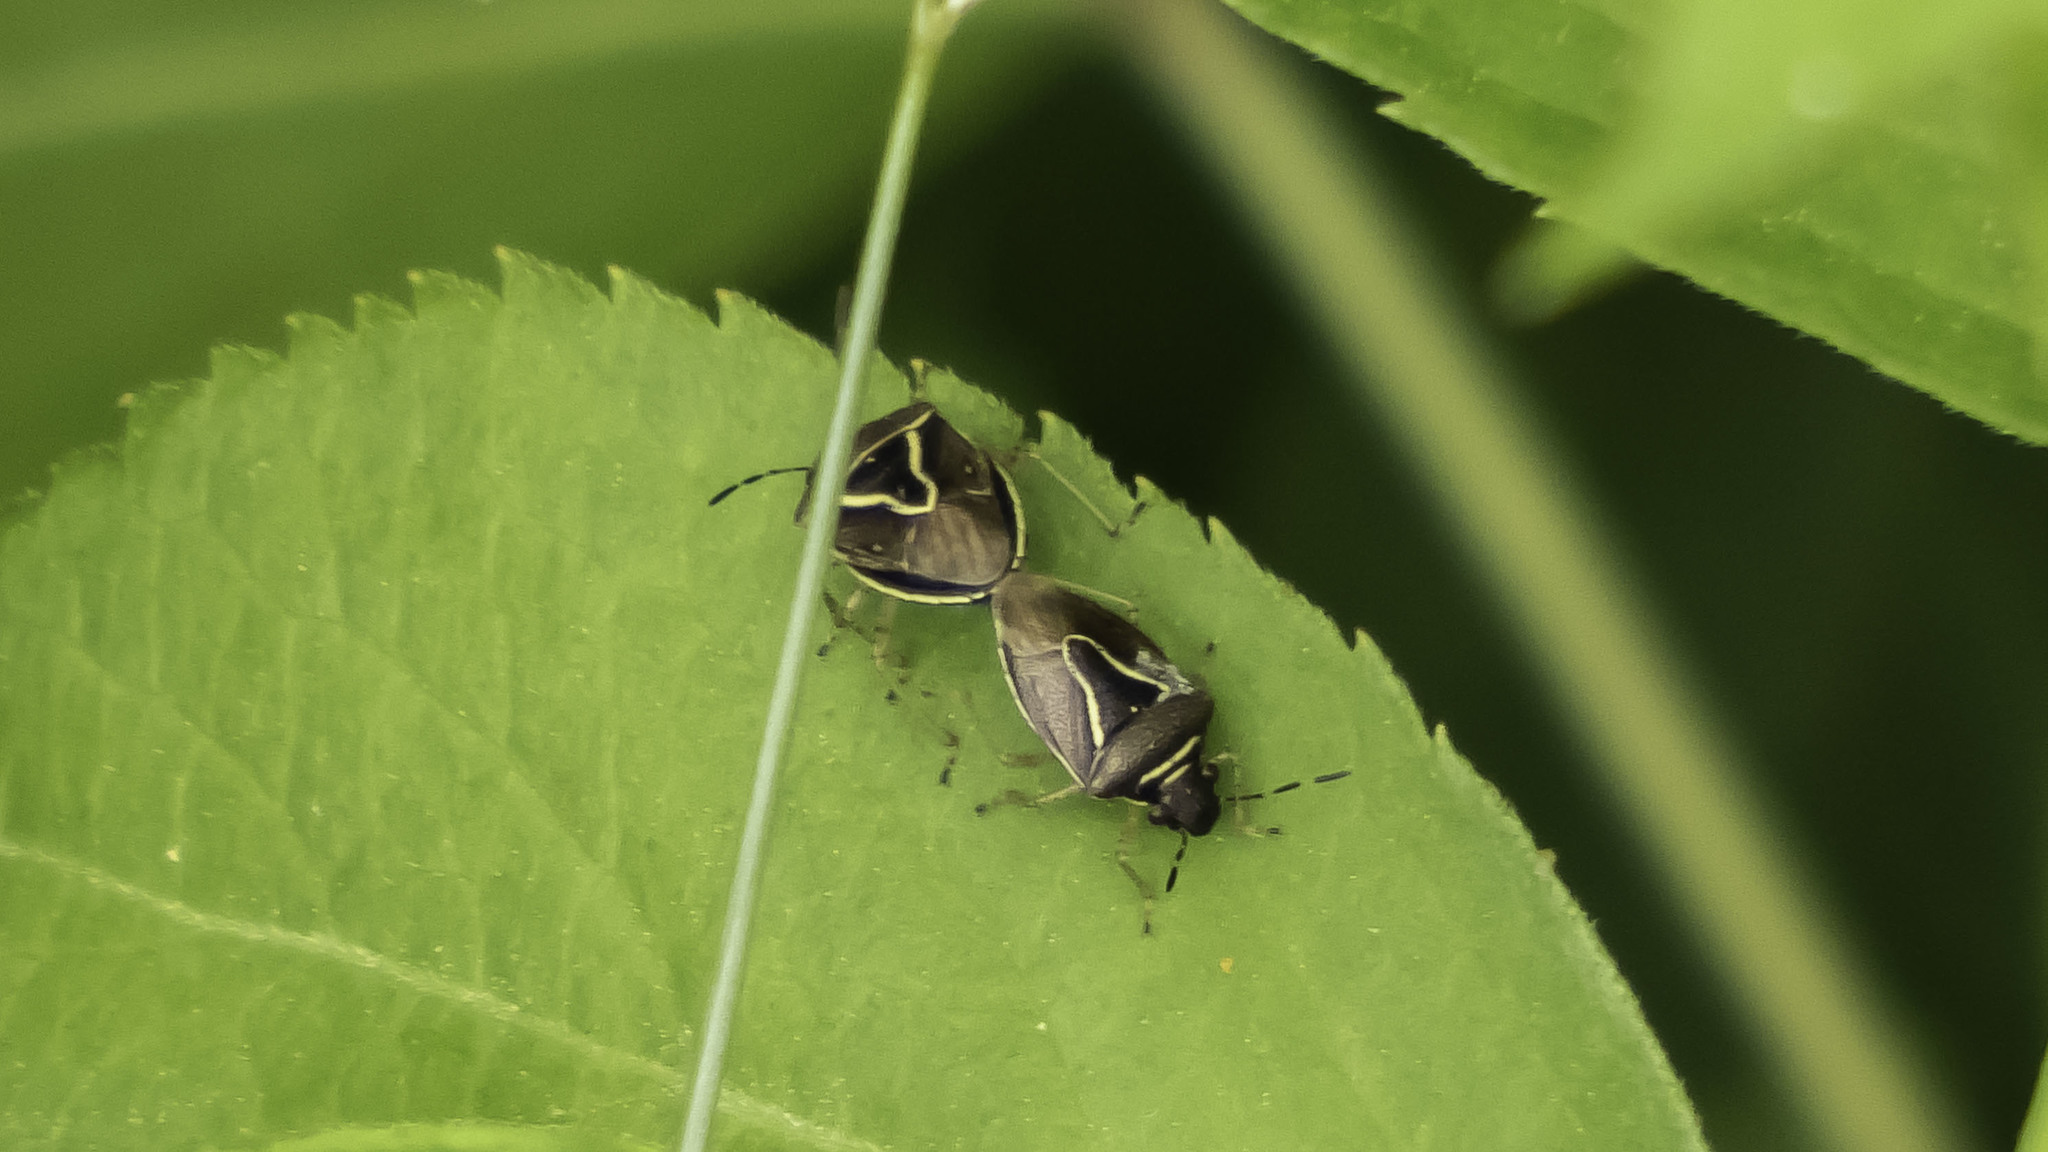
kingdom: Animalia
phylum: Arthropoda
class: Insecta
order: Hemiptera
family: Pentatomidae
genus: Mormidea
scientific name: Mormidea lugens
